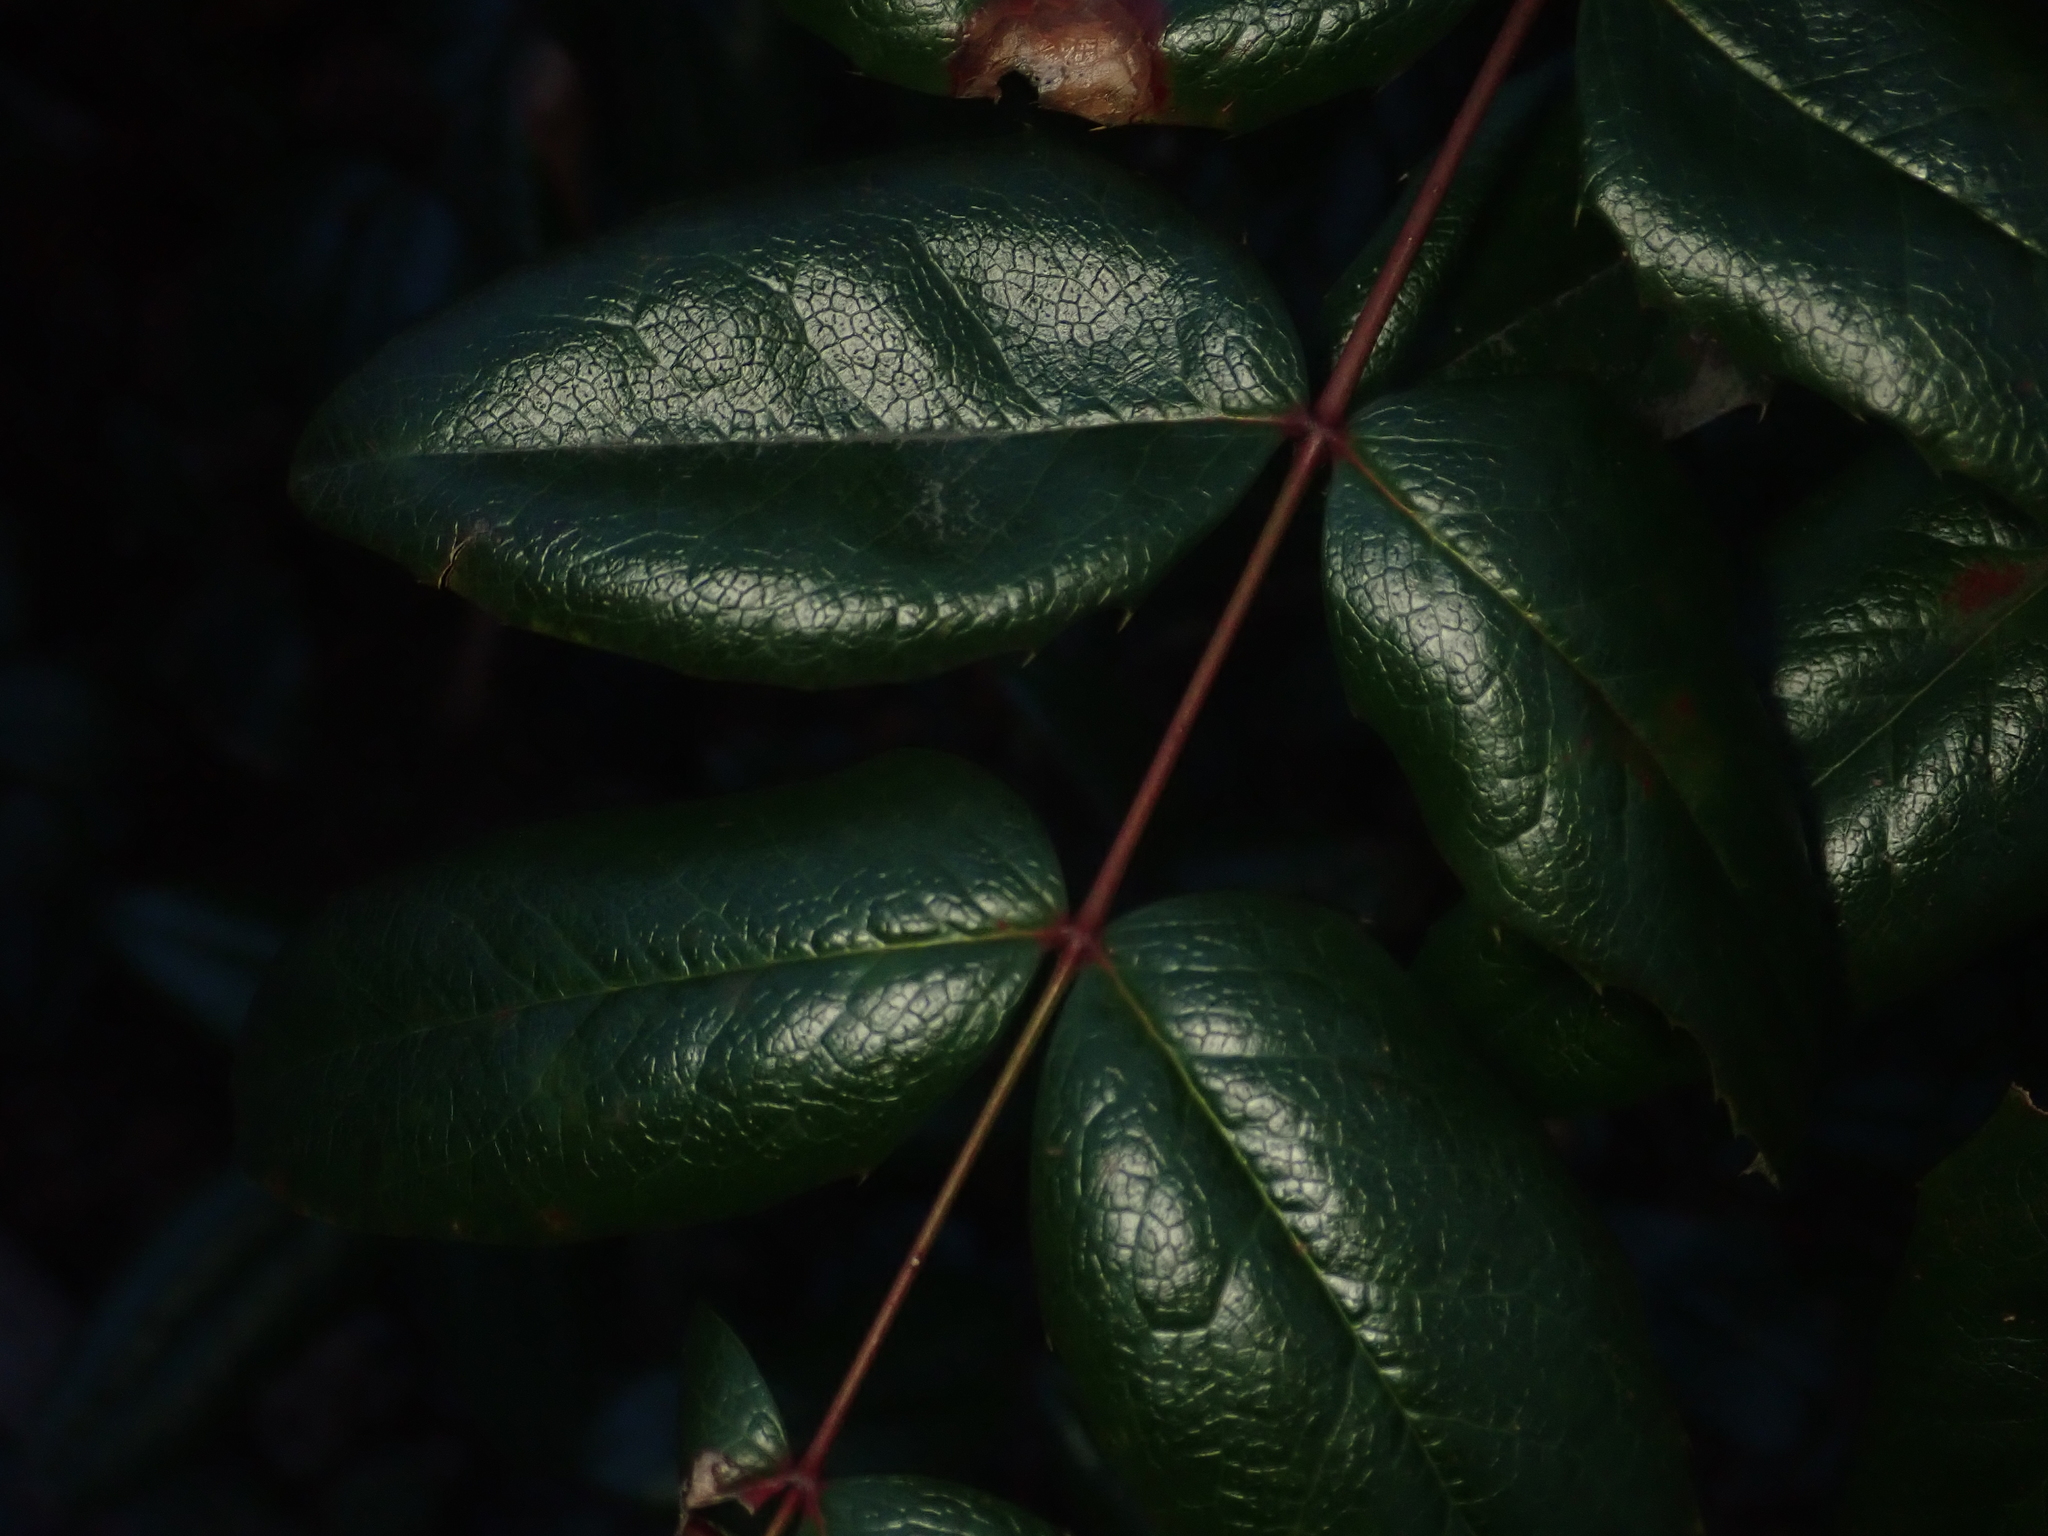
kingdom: Plantae
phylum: Tracheophyta
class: Magnoliopsida
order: Ranunculales
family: Berberidaceae
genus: Mahonia
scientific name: Mahonia aquifolium
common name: Oregon-grape
